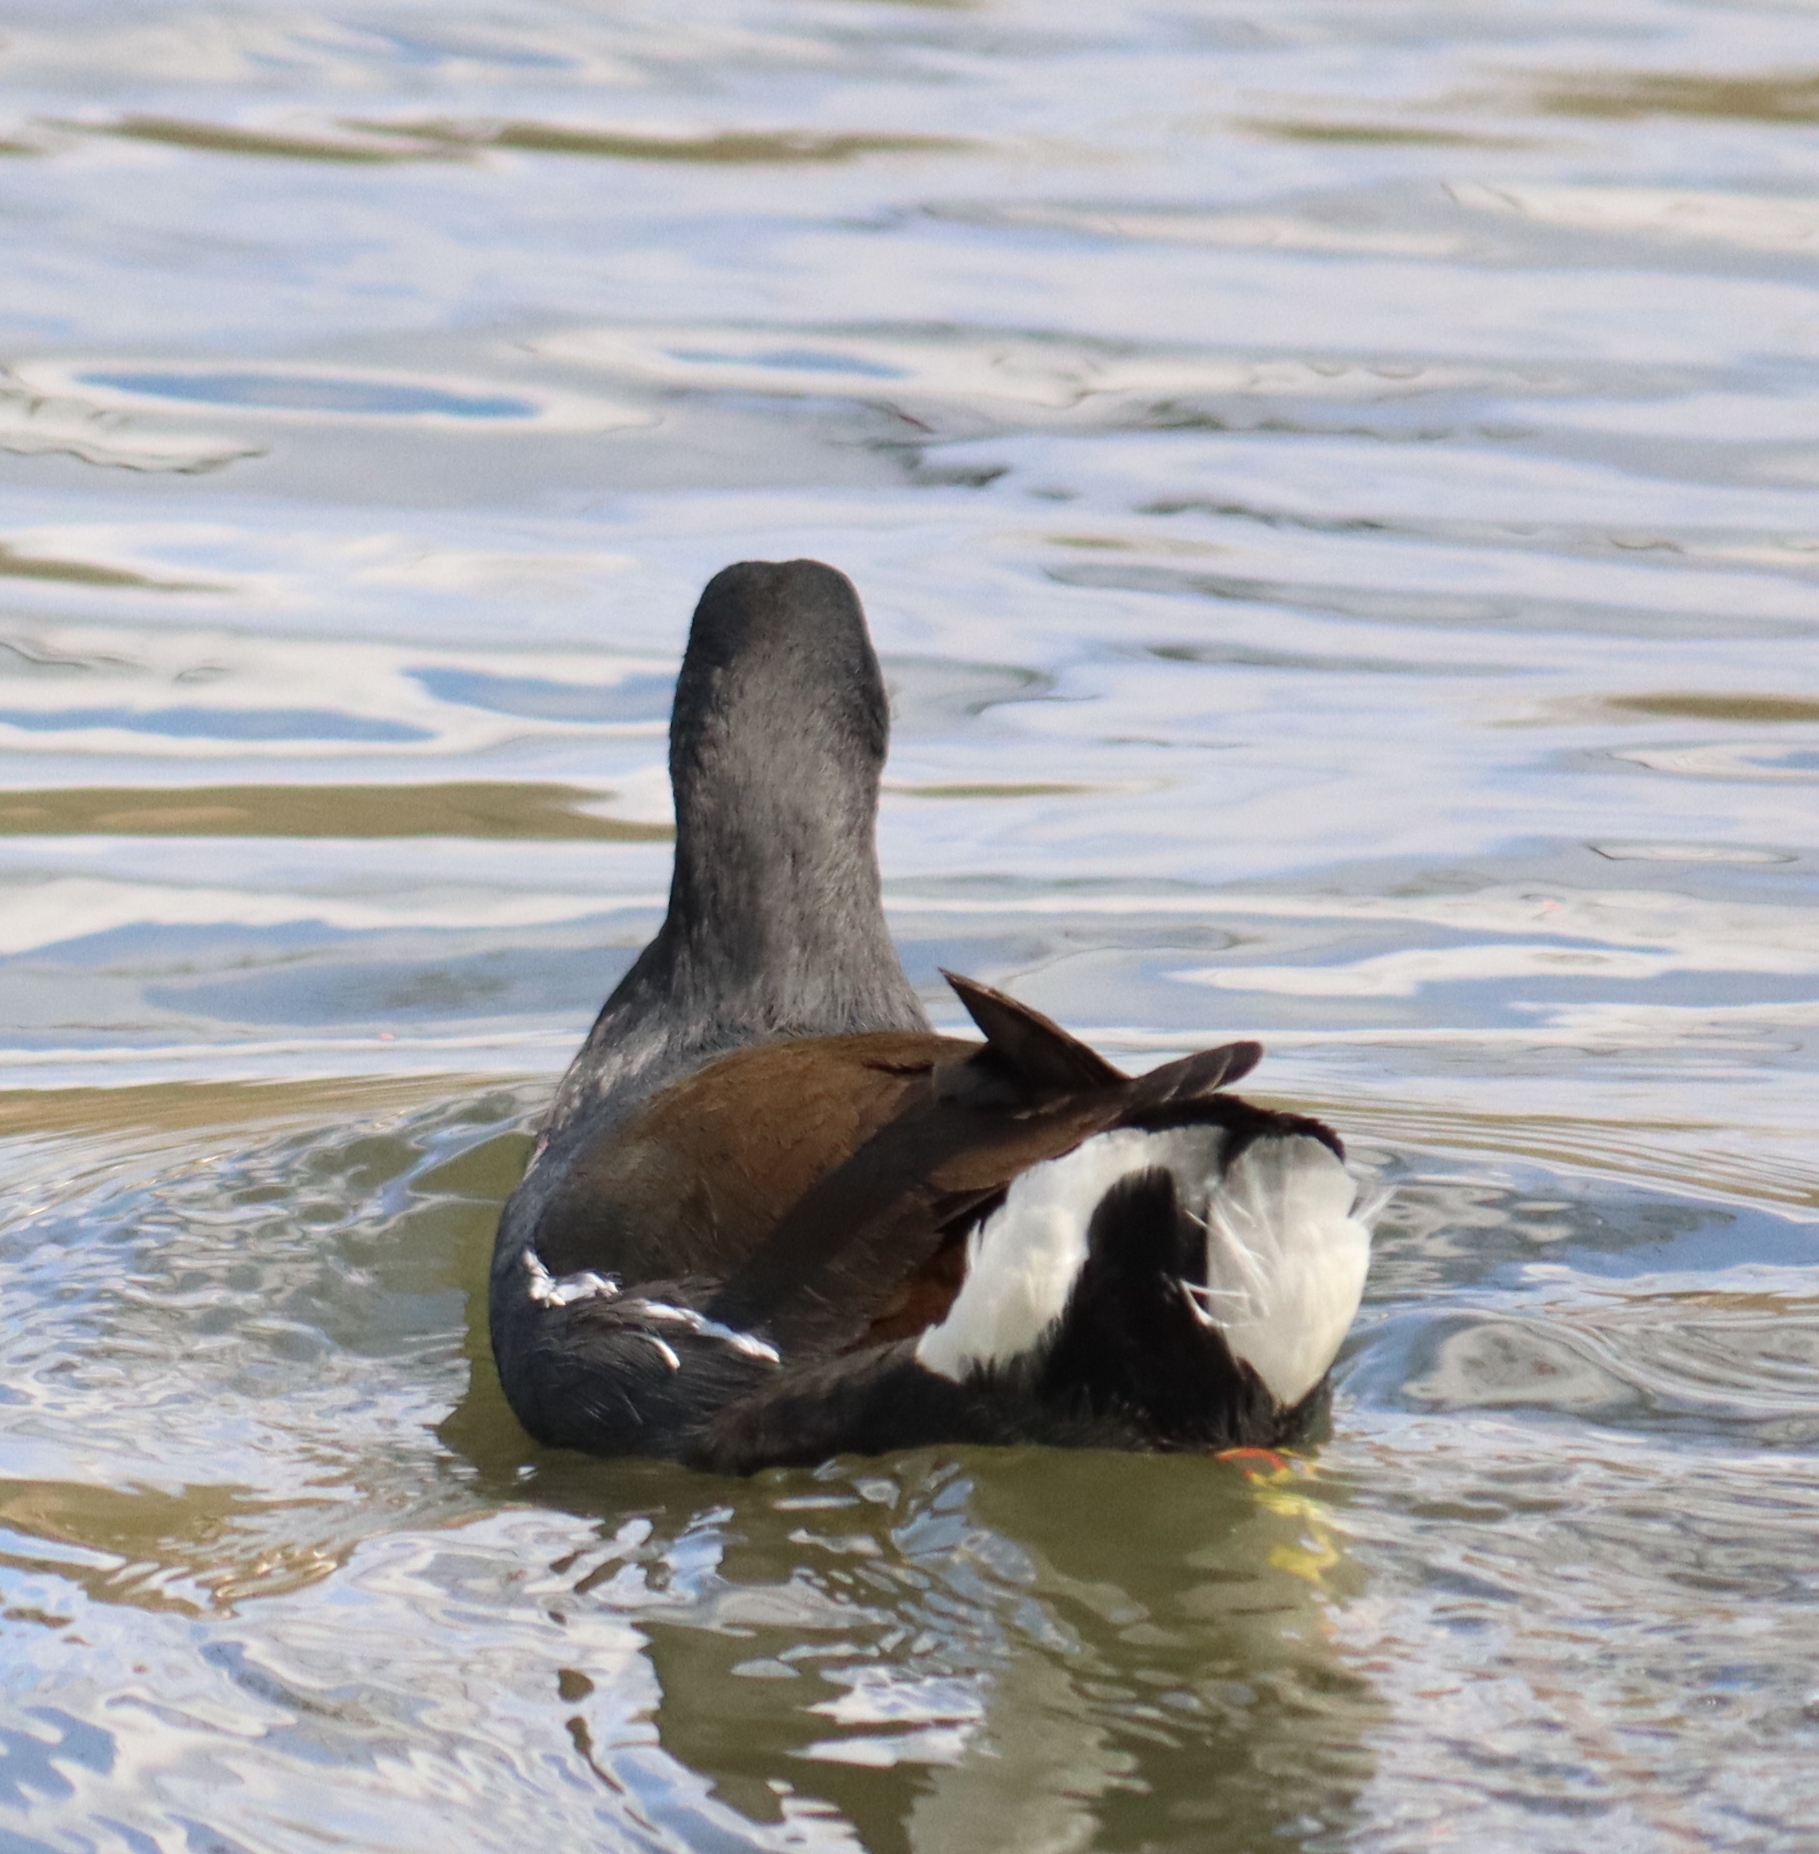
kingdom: Animalia
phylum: Chordata
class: Aves
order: Gruiformes
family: Rallidae
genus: Gallinula
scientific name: Gallinula chloropus
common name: Common moorhen
